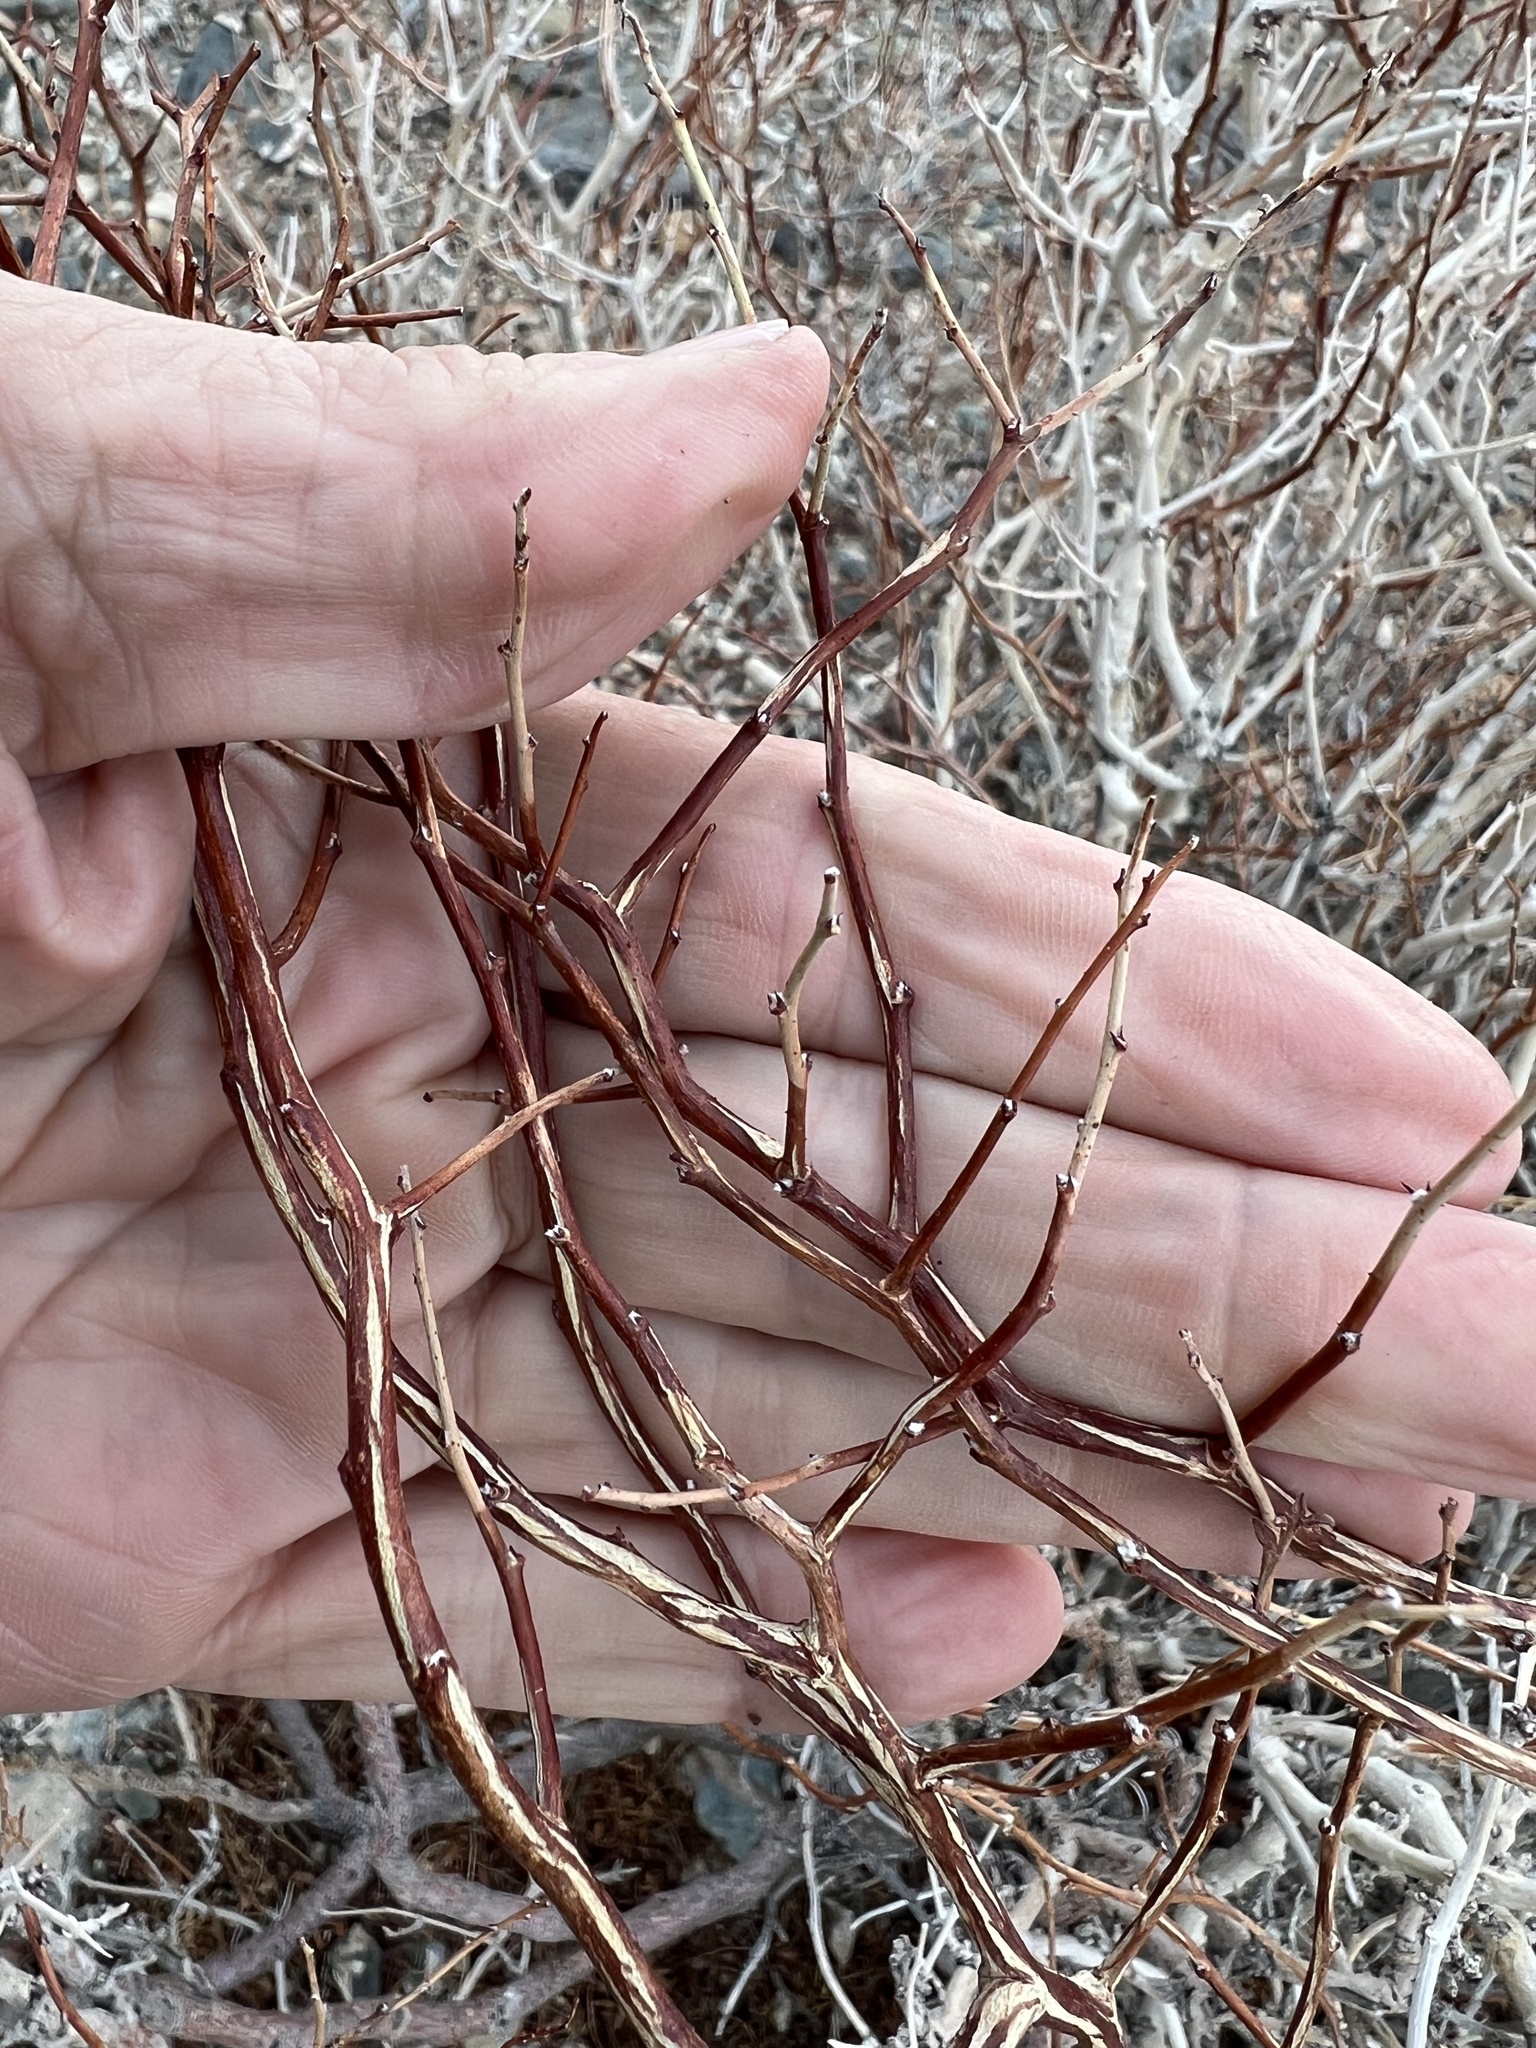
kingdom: Plantae
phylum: Tracheophyta
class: Magnoliopsida
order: Fabales
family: Fabaceae
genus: Psorothamnus
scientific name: Psorothamnus arborescens
